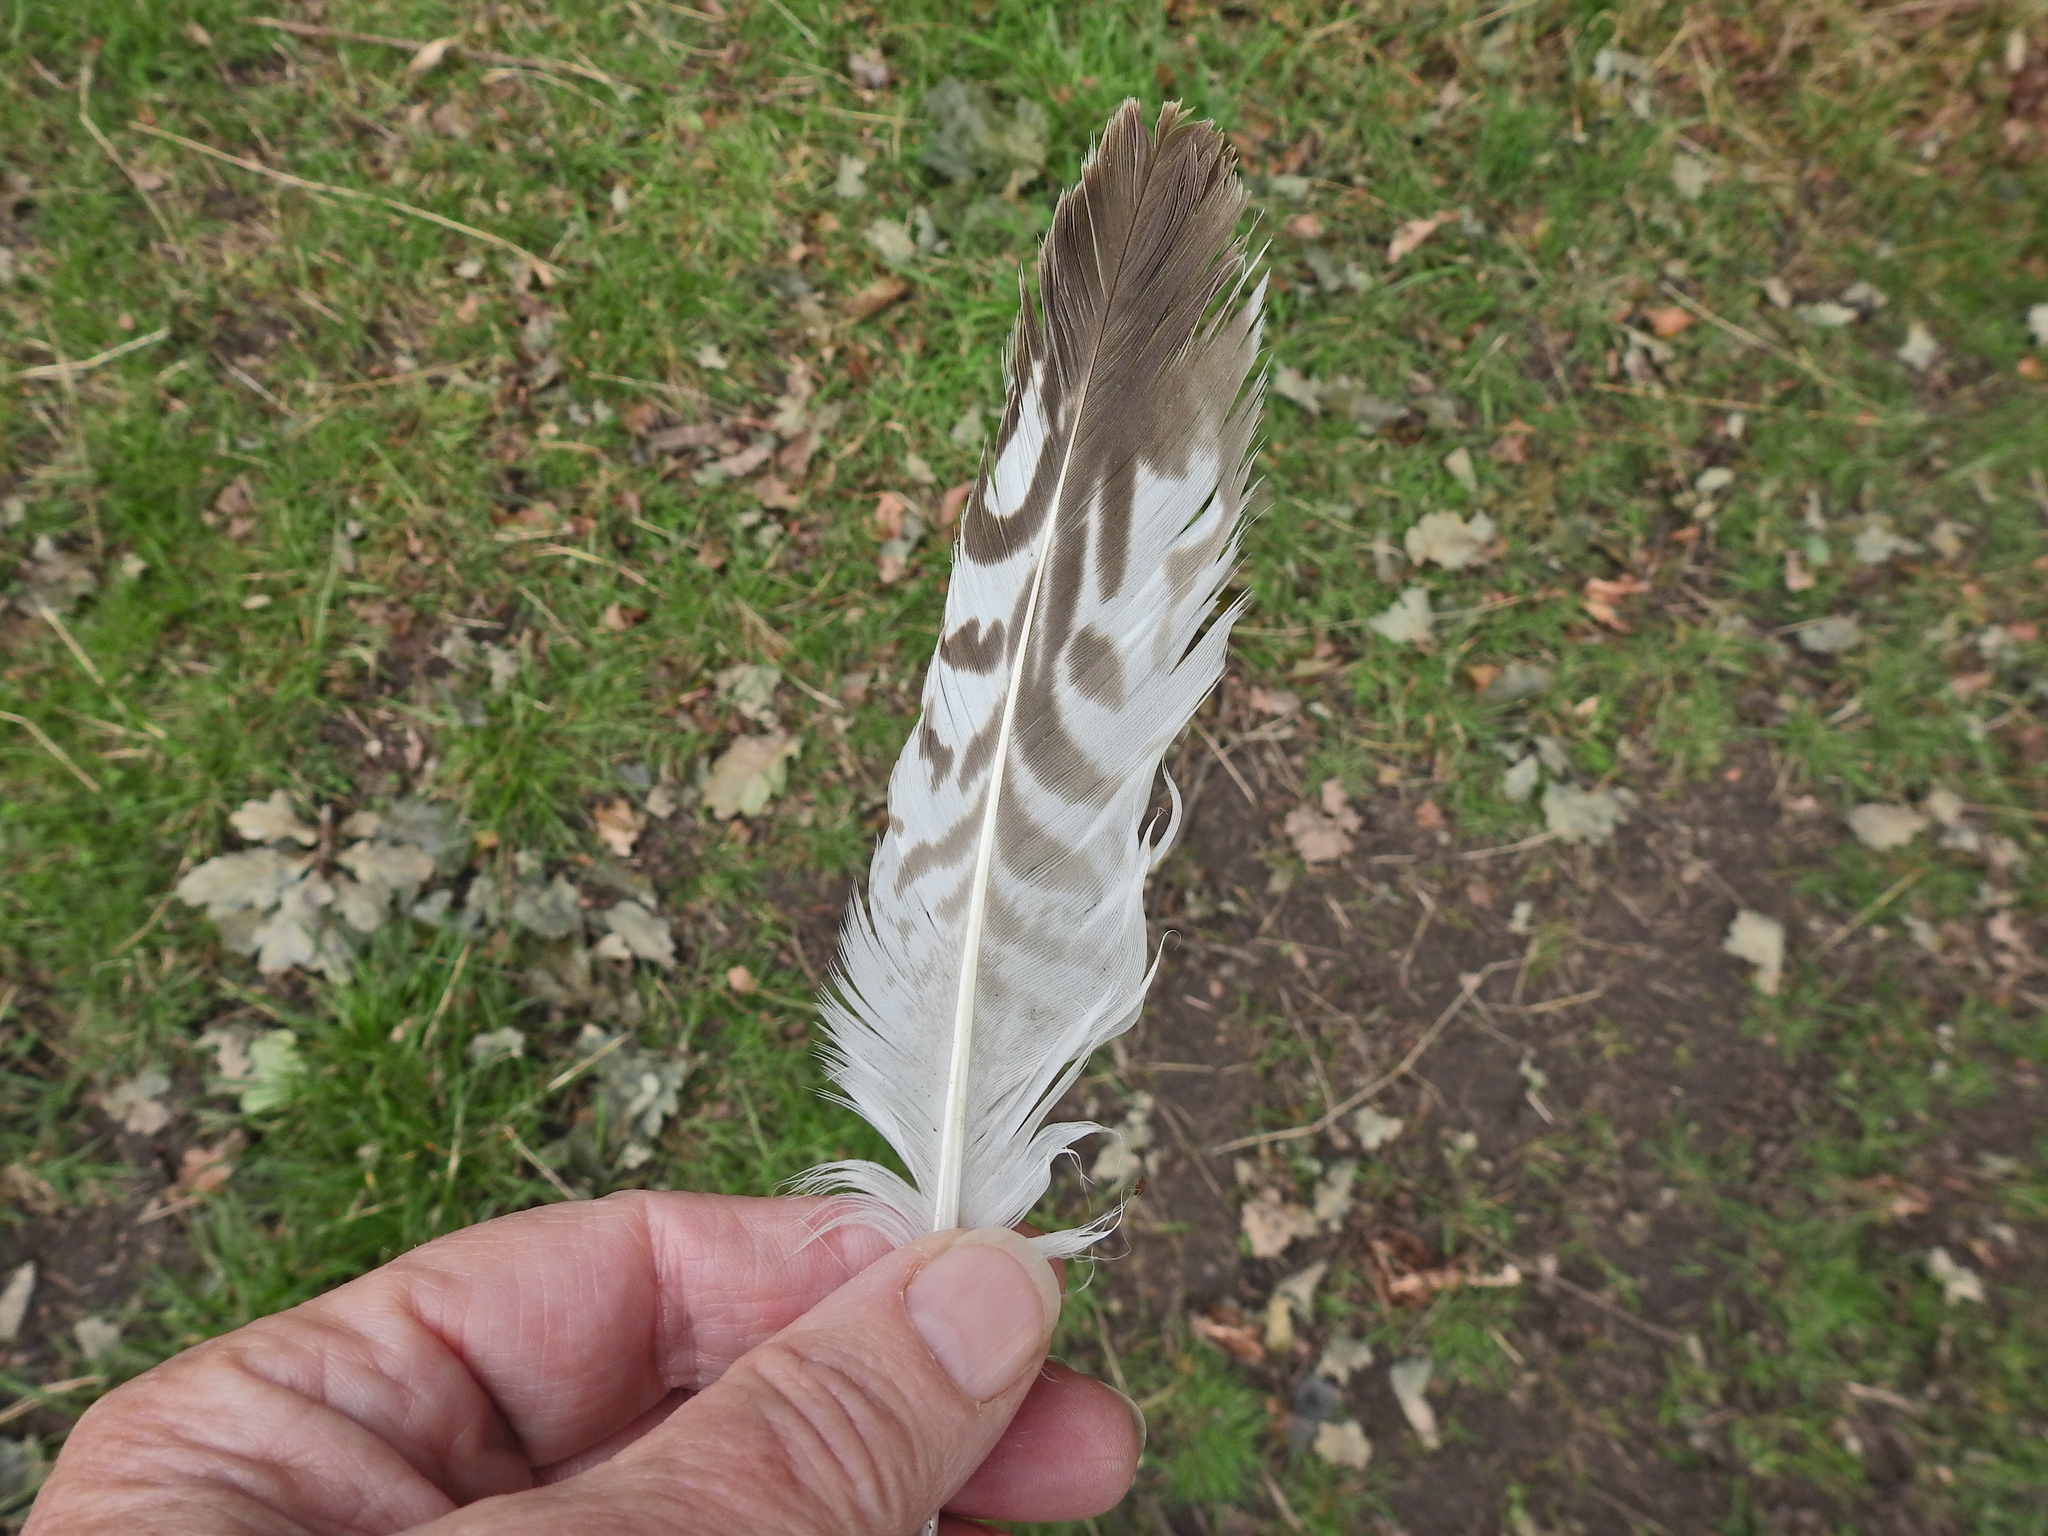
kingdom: Animalia
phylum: Chordata
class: Aves
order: Charadriiformes
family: Laridae
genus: Larus
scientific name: Larus argentatus
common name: Herring gull
